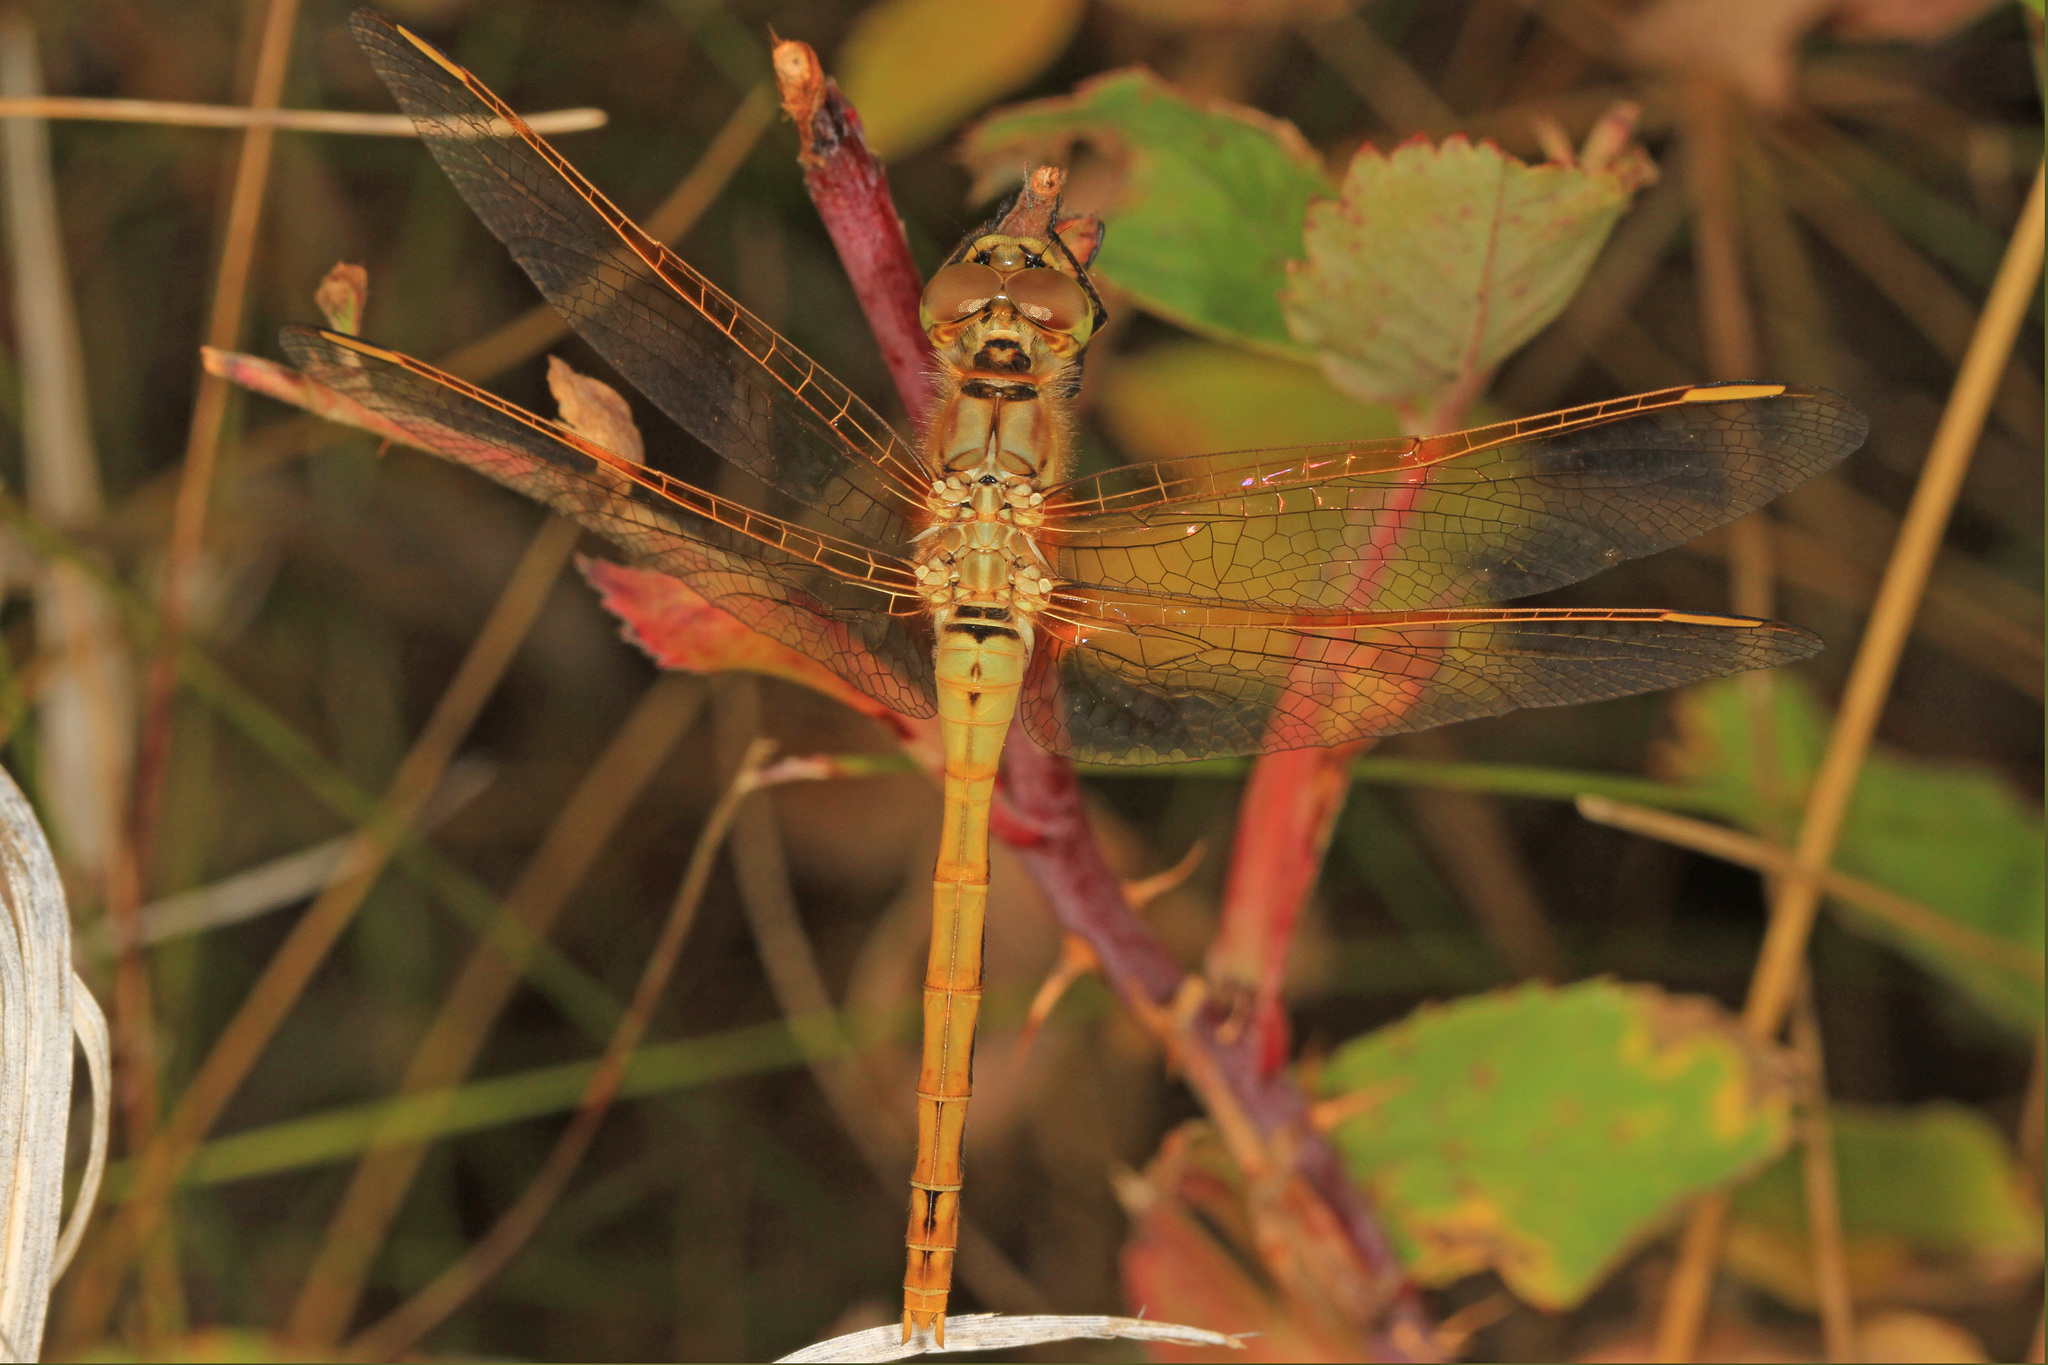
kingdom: Animalia
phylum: Arthropoda
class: Insecta
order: Odonata
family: Libellulidae
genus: Sympetrum
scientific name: Sympetrum costiferum
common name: Saffron-winged meadowhawk
